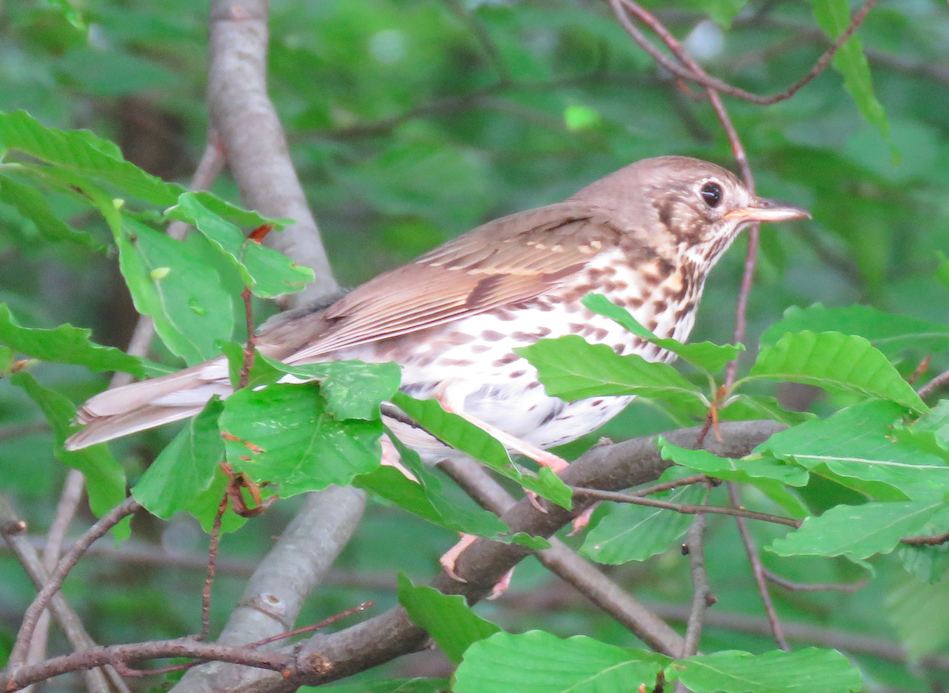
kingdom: Animalia
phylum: Chordata
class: Aves
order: Passeriformes
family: Turdidae
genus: Turdus
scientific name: Turdus philomelos
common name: Song thrush
